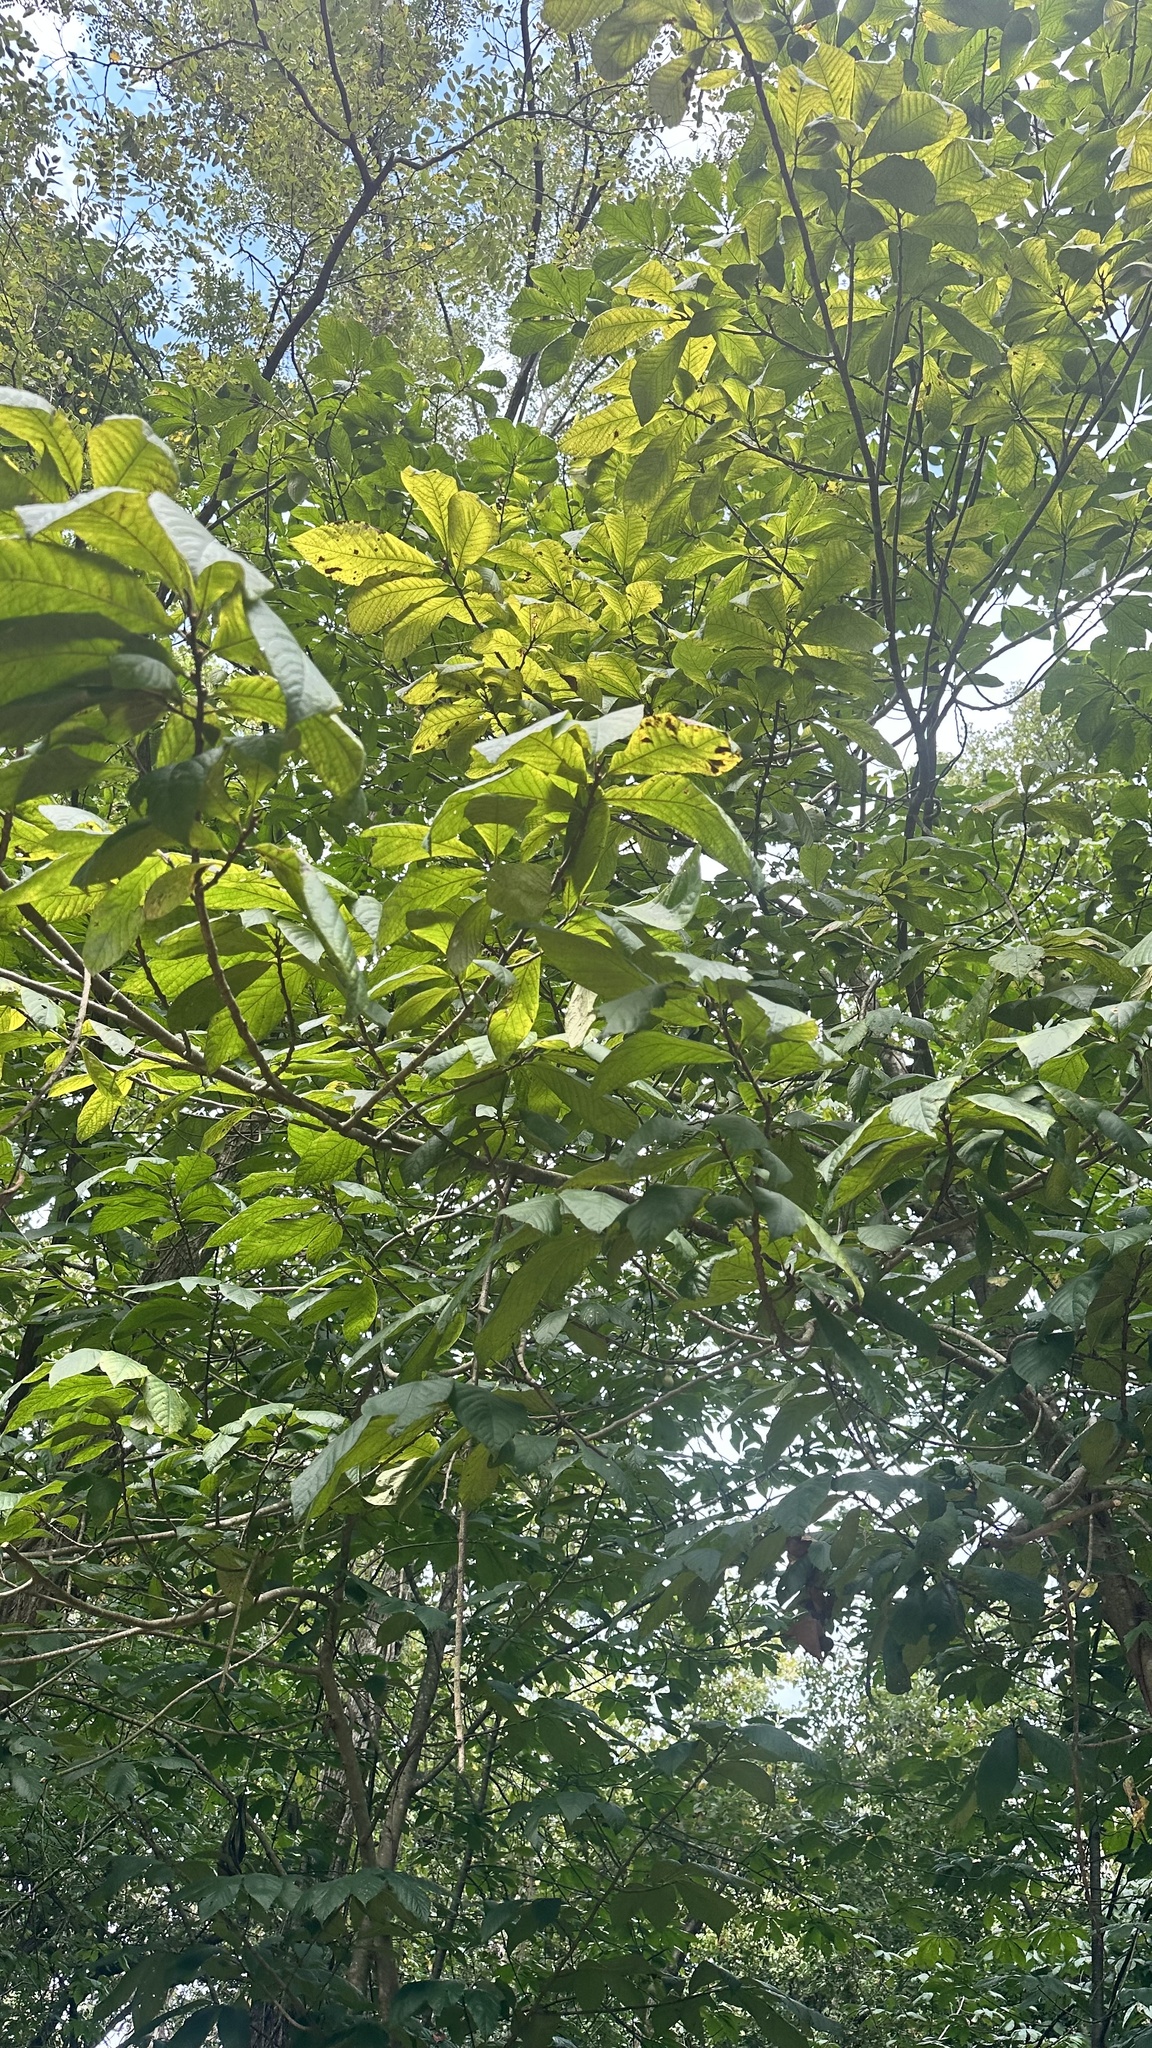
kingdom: Plantae
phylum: Tracheophyta
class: Magnoliopsida
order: Magnoliales
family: Annonaceae
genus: Asimina
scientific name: Asimina triloba
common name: Dog-banana
